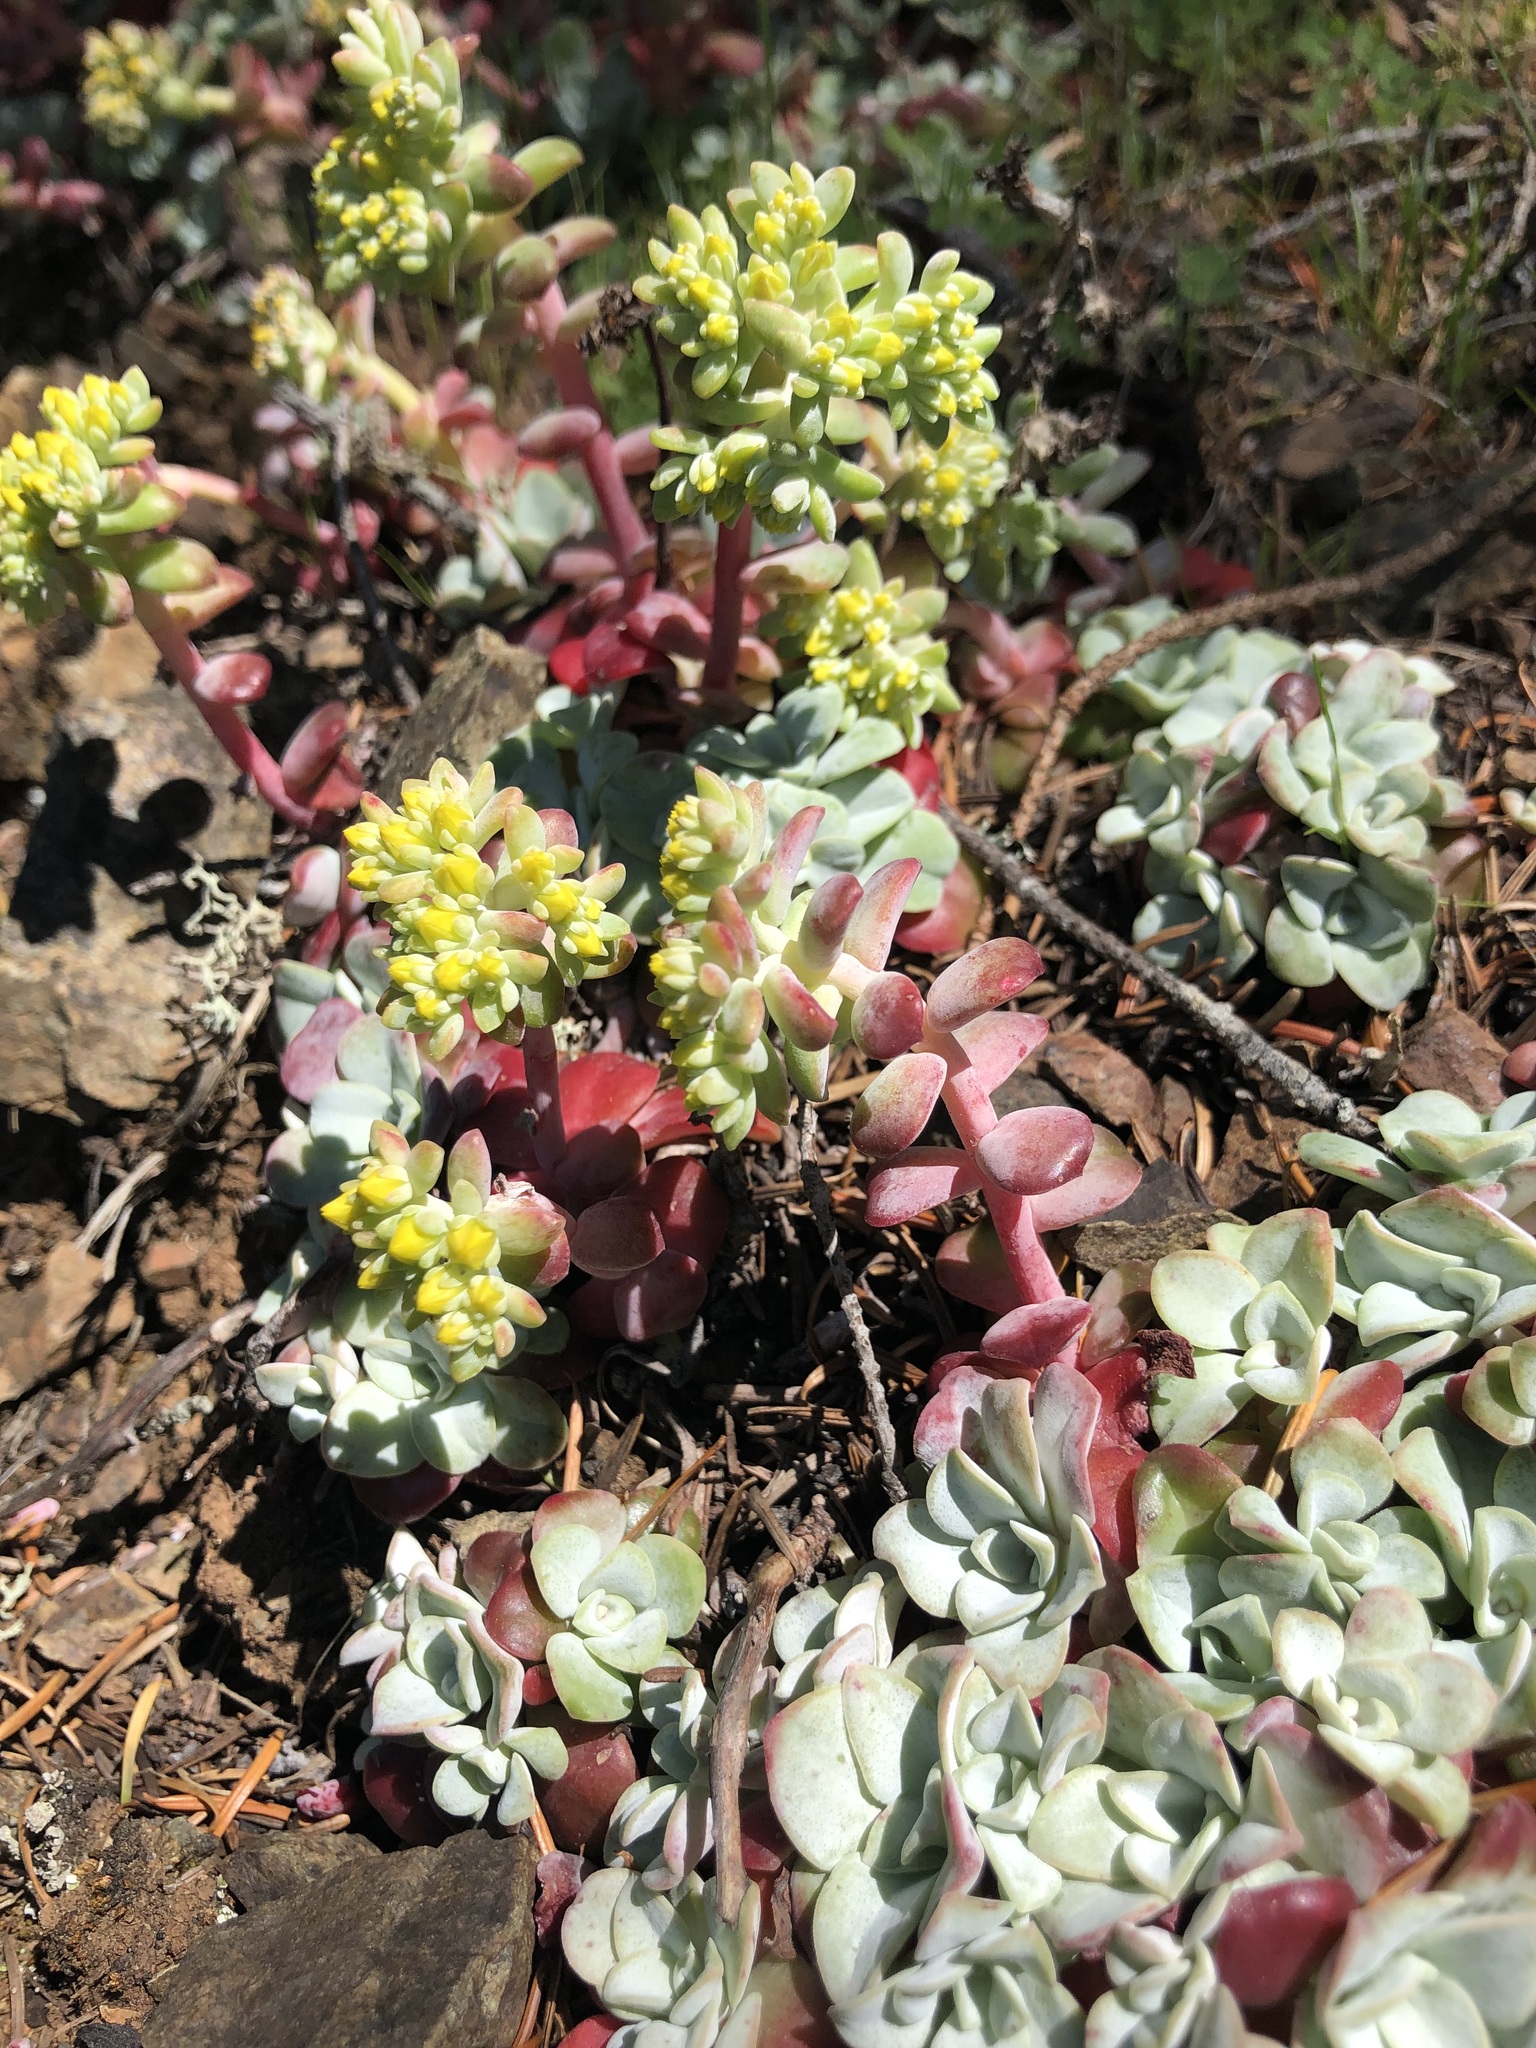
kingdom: Plantae
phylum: Tracheophyta
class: Magnoliopsida
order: Saxifragales
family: Crassulaceae
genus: Sedum
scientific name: Sedum spathulifolium
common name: Colorado stonecrop
